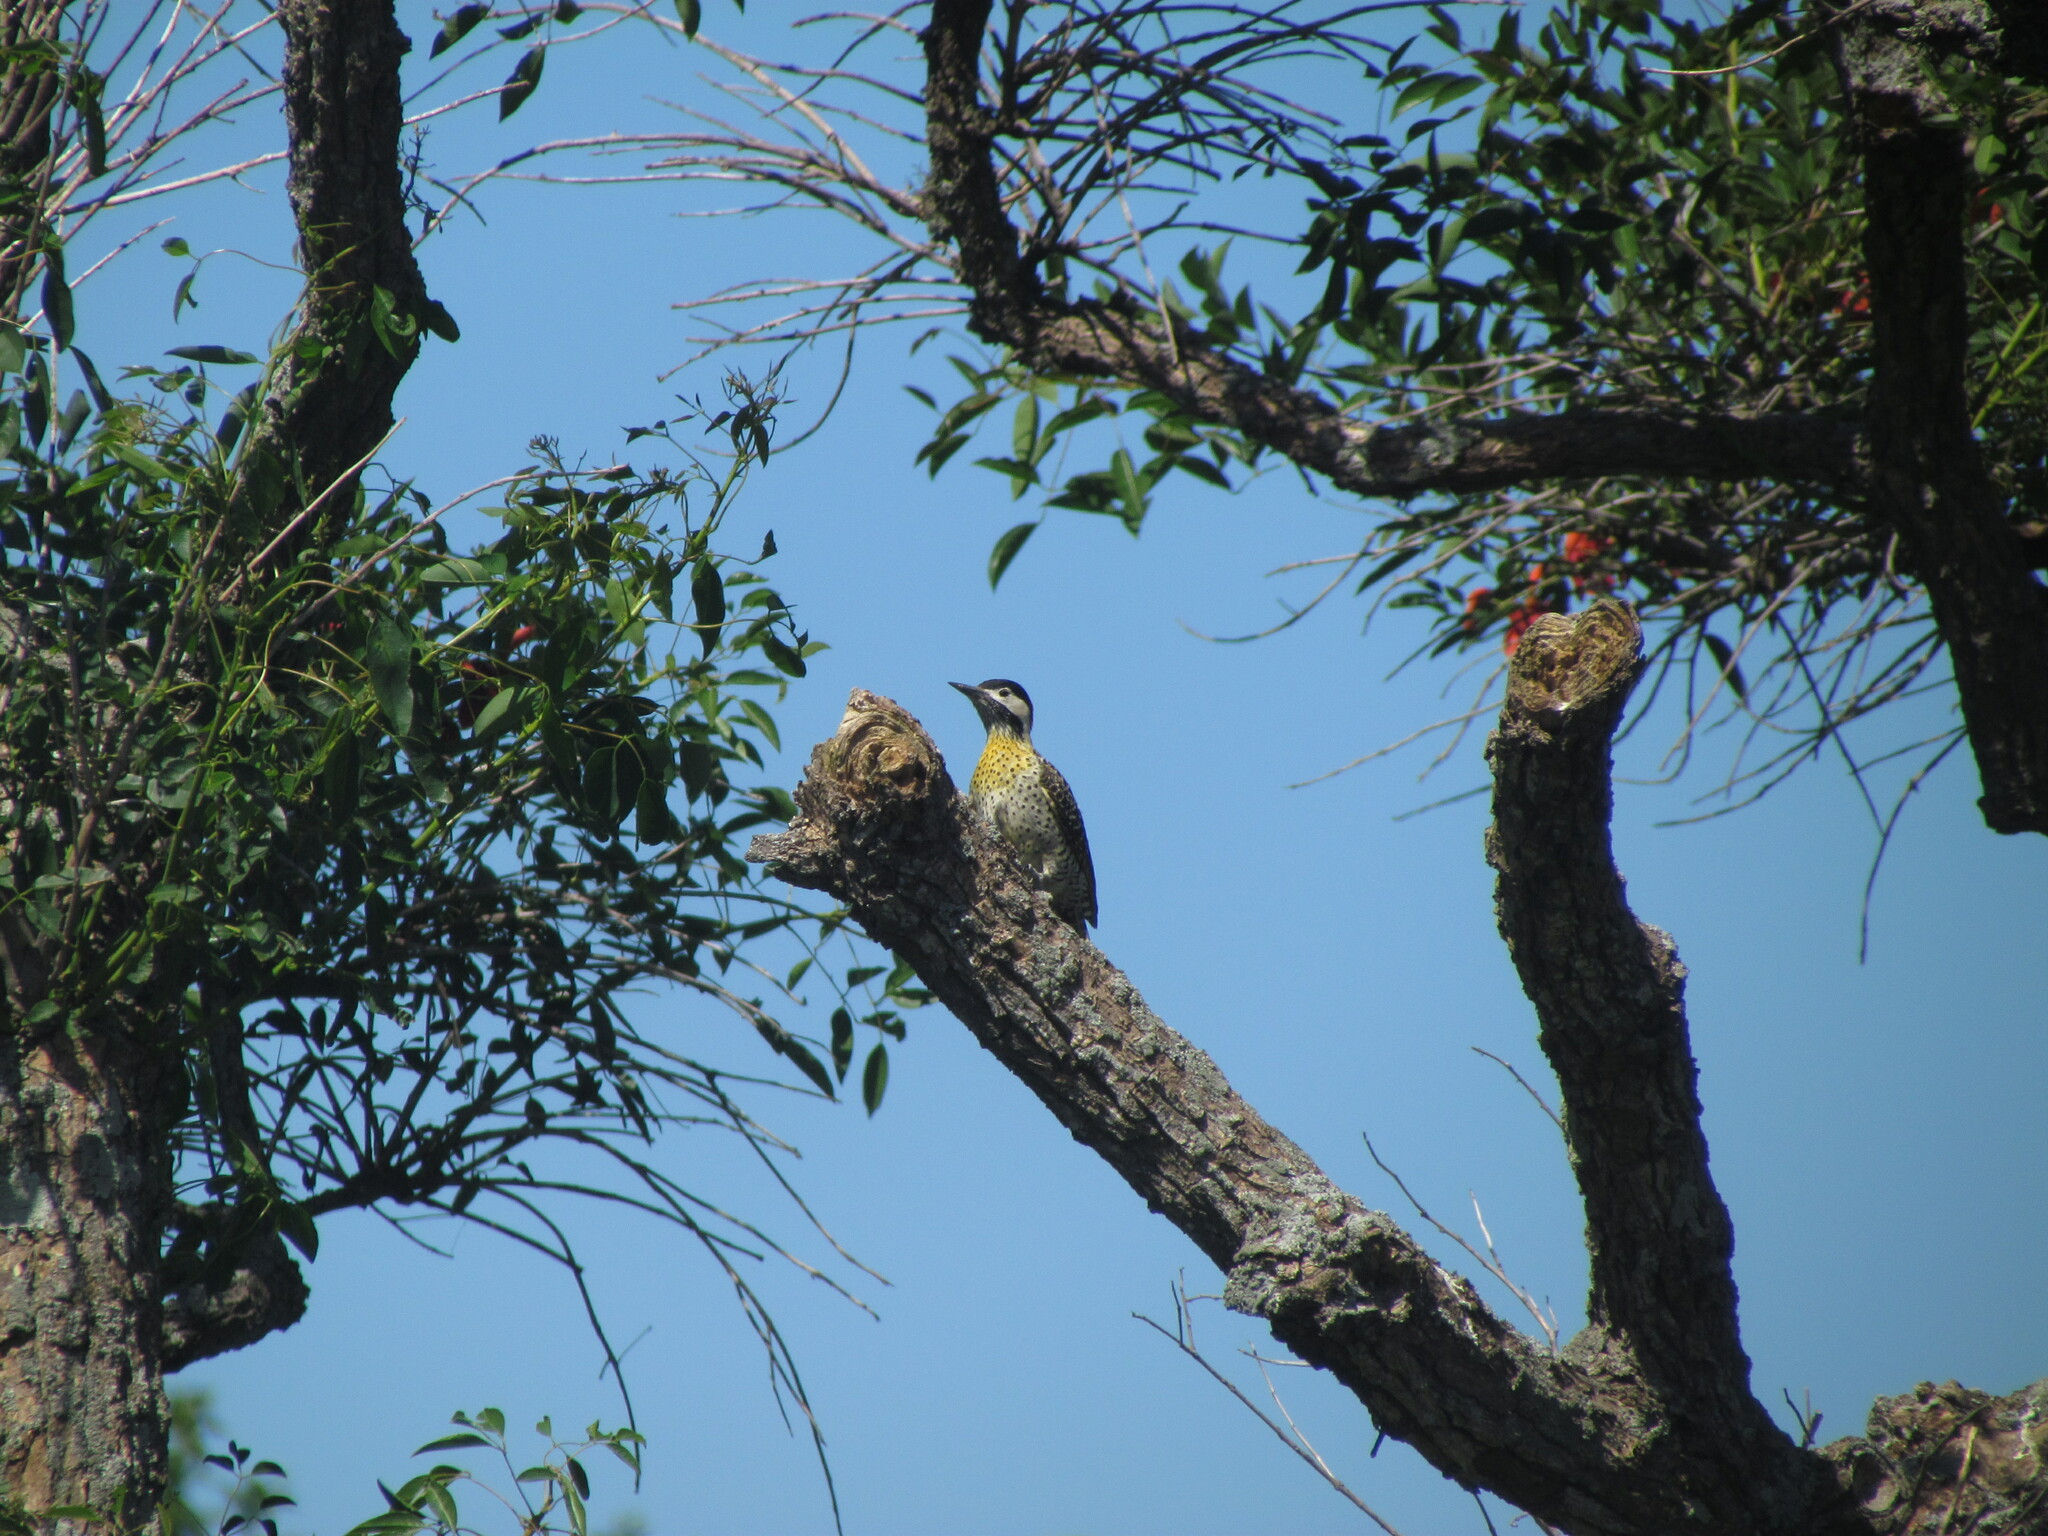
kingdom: Animalia
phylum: Chordata
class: Aves
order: Piciformes
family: Picidae
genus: Colaptes
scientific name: Colaptes melanochloros
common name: Green-barred woodpecker
